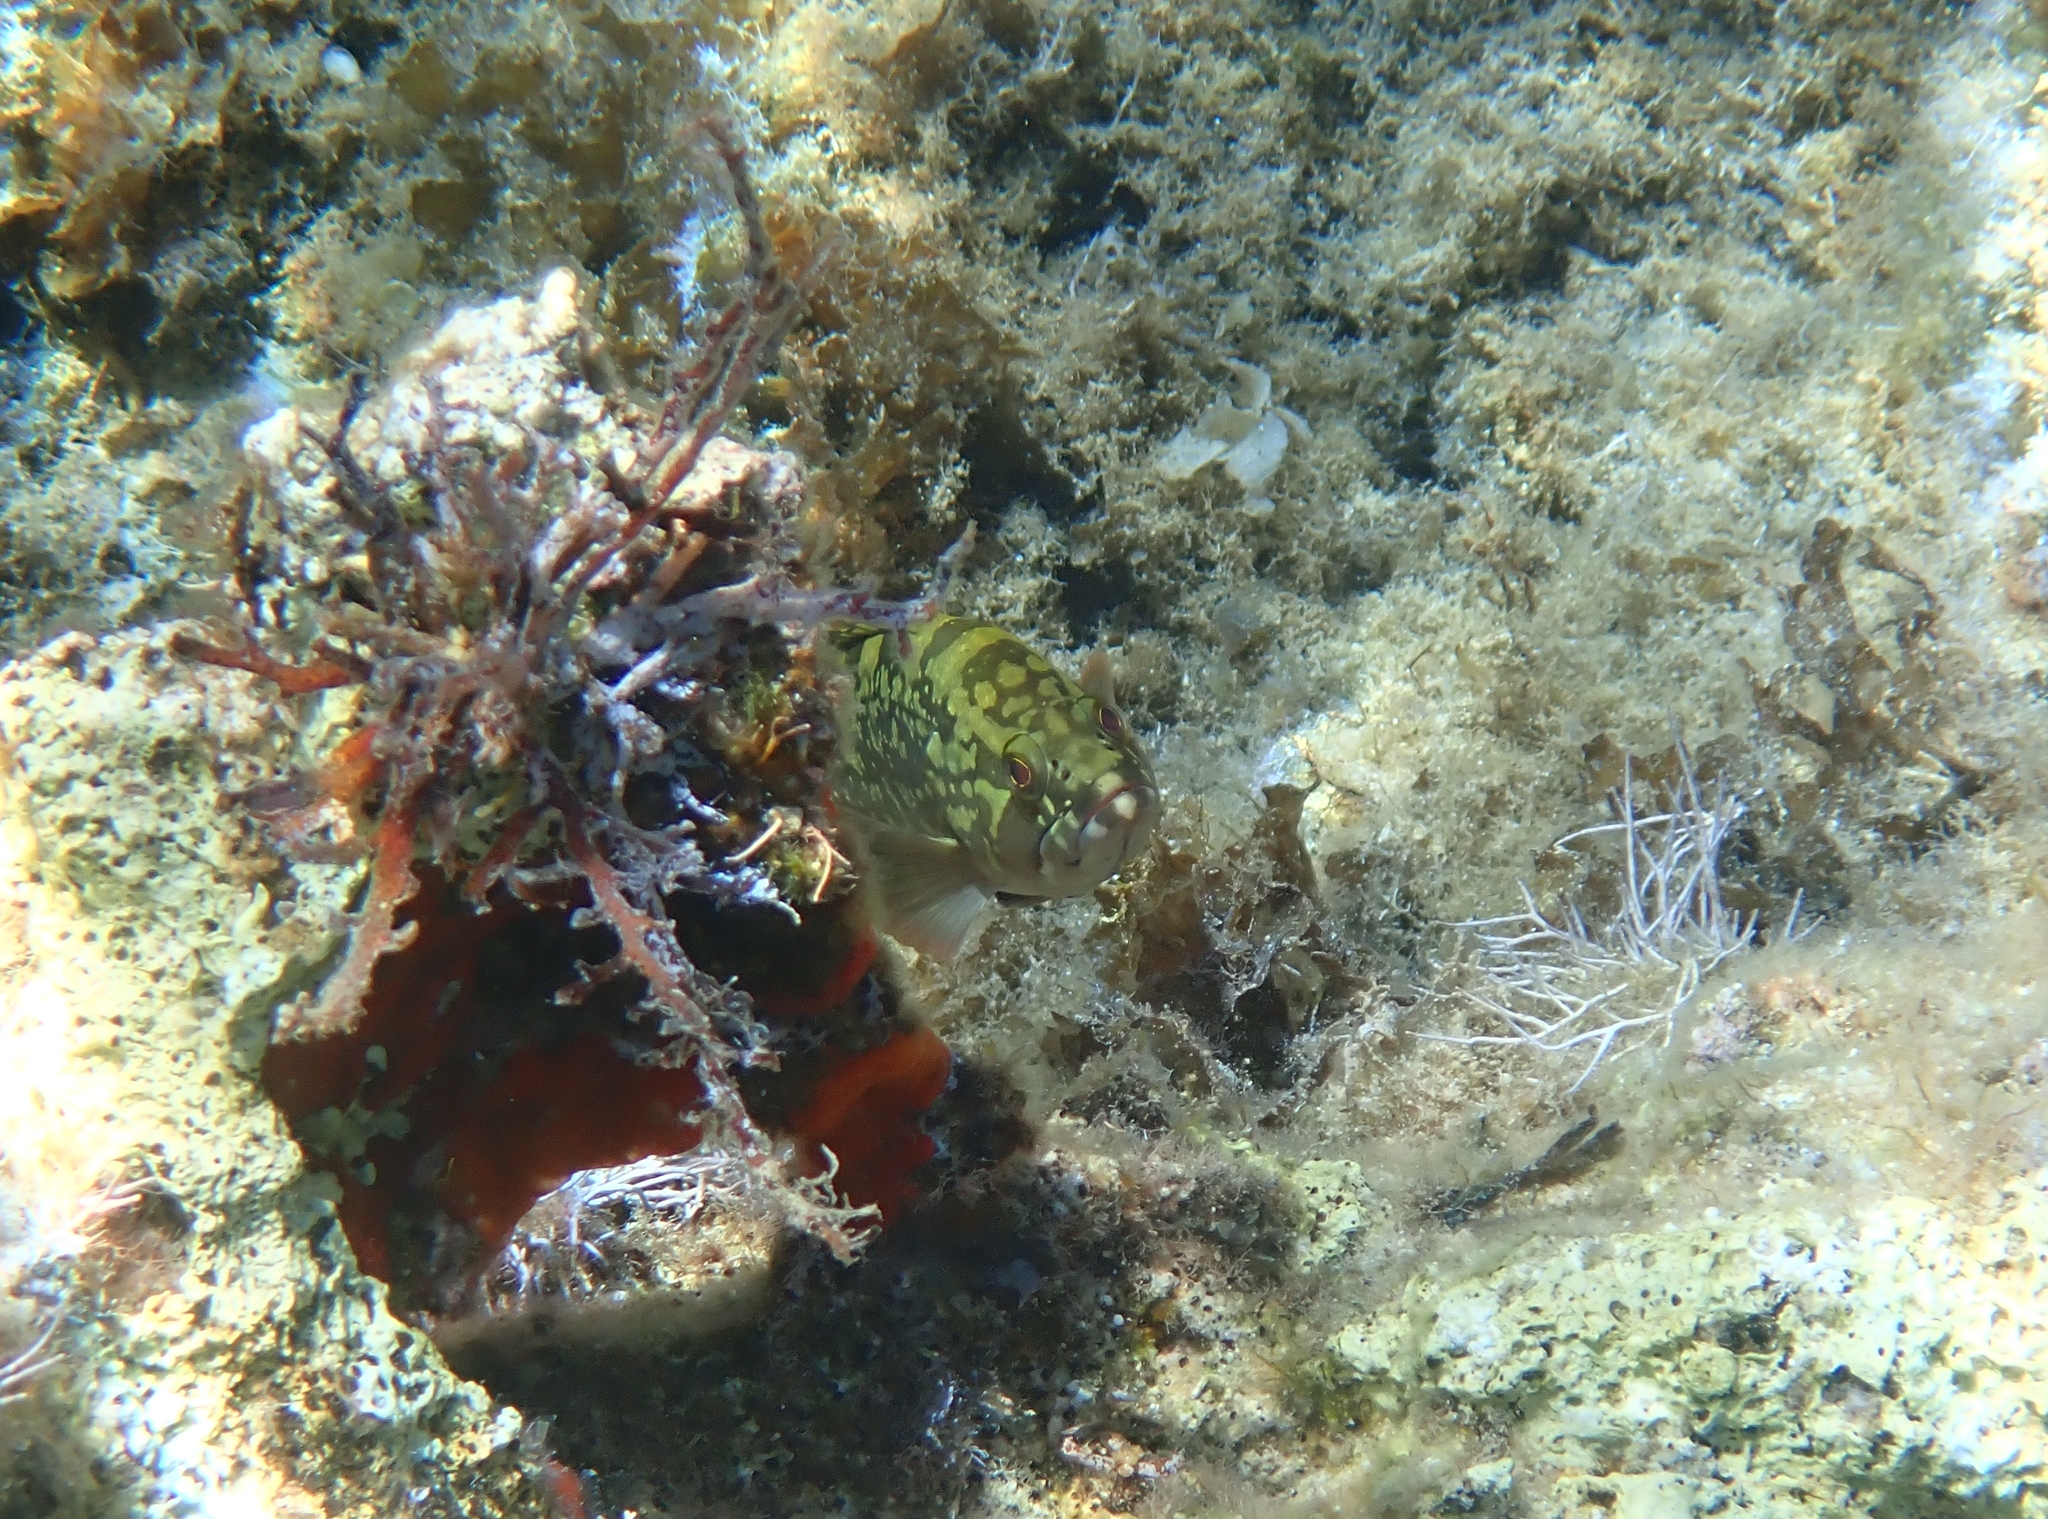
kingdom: Animalia
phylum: Chordata
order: Perciformes
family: Serranidae
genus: Epinephelus
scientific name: Epinephelus marginatus
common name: Dusky grouper
